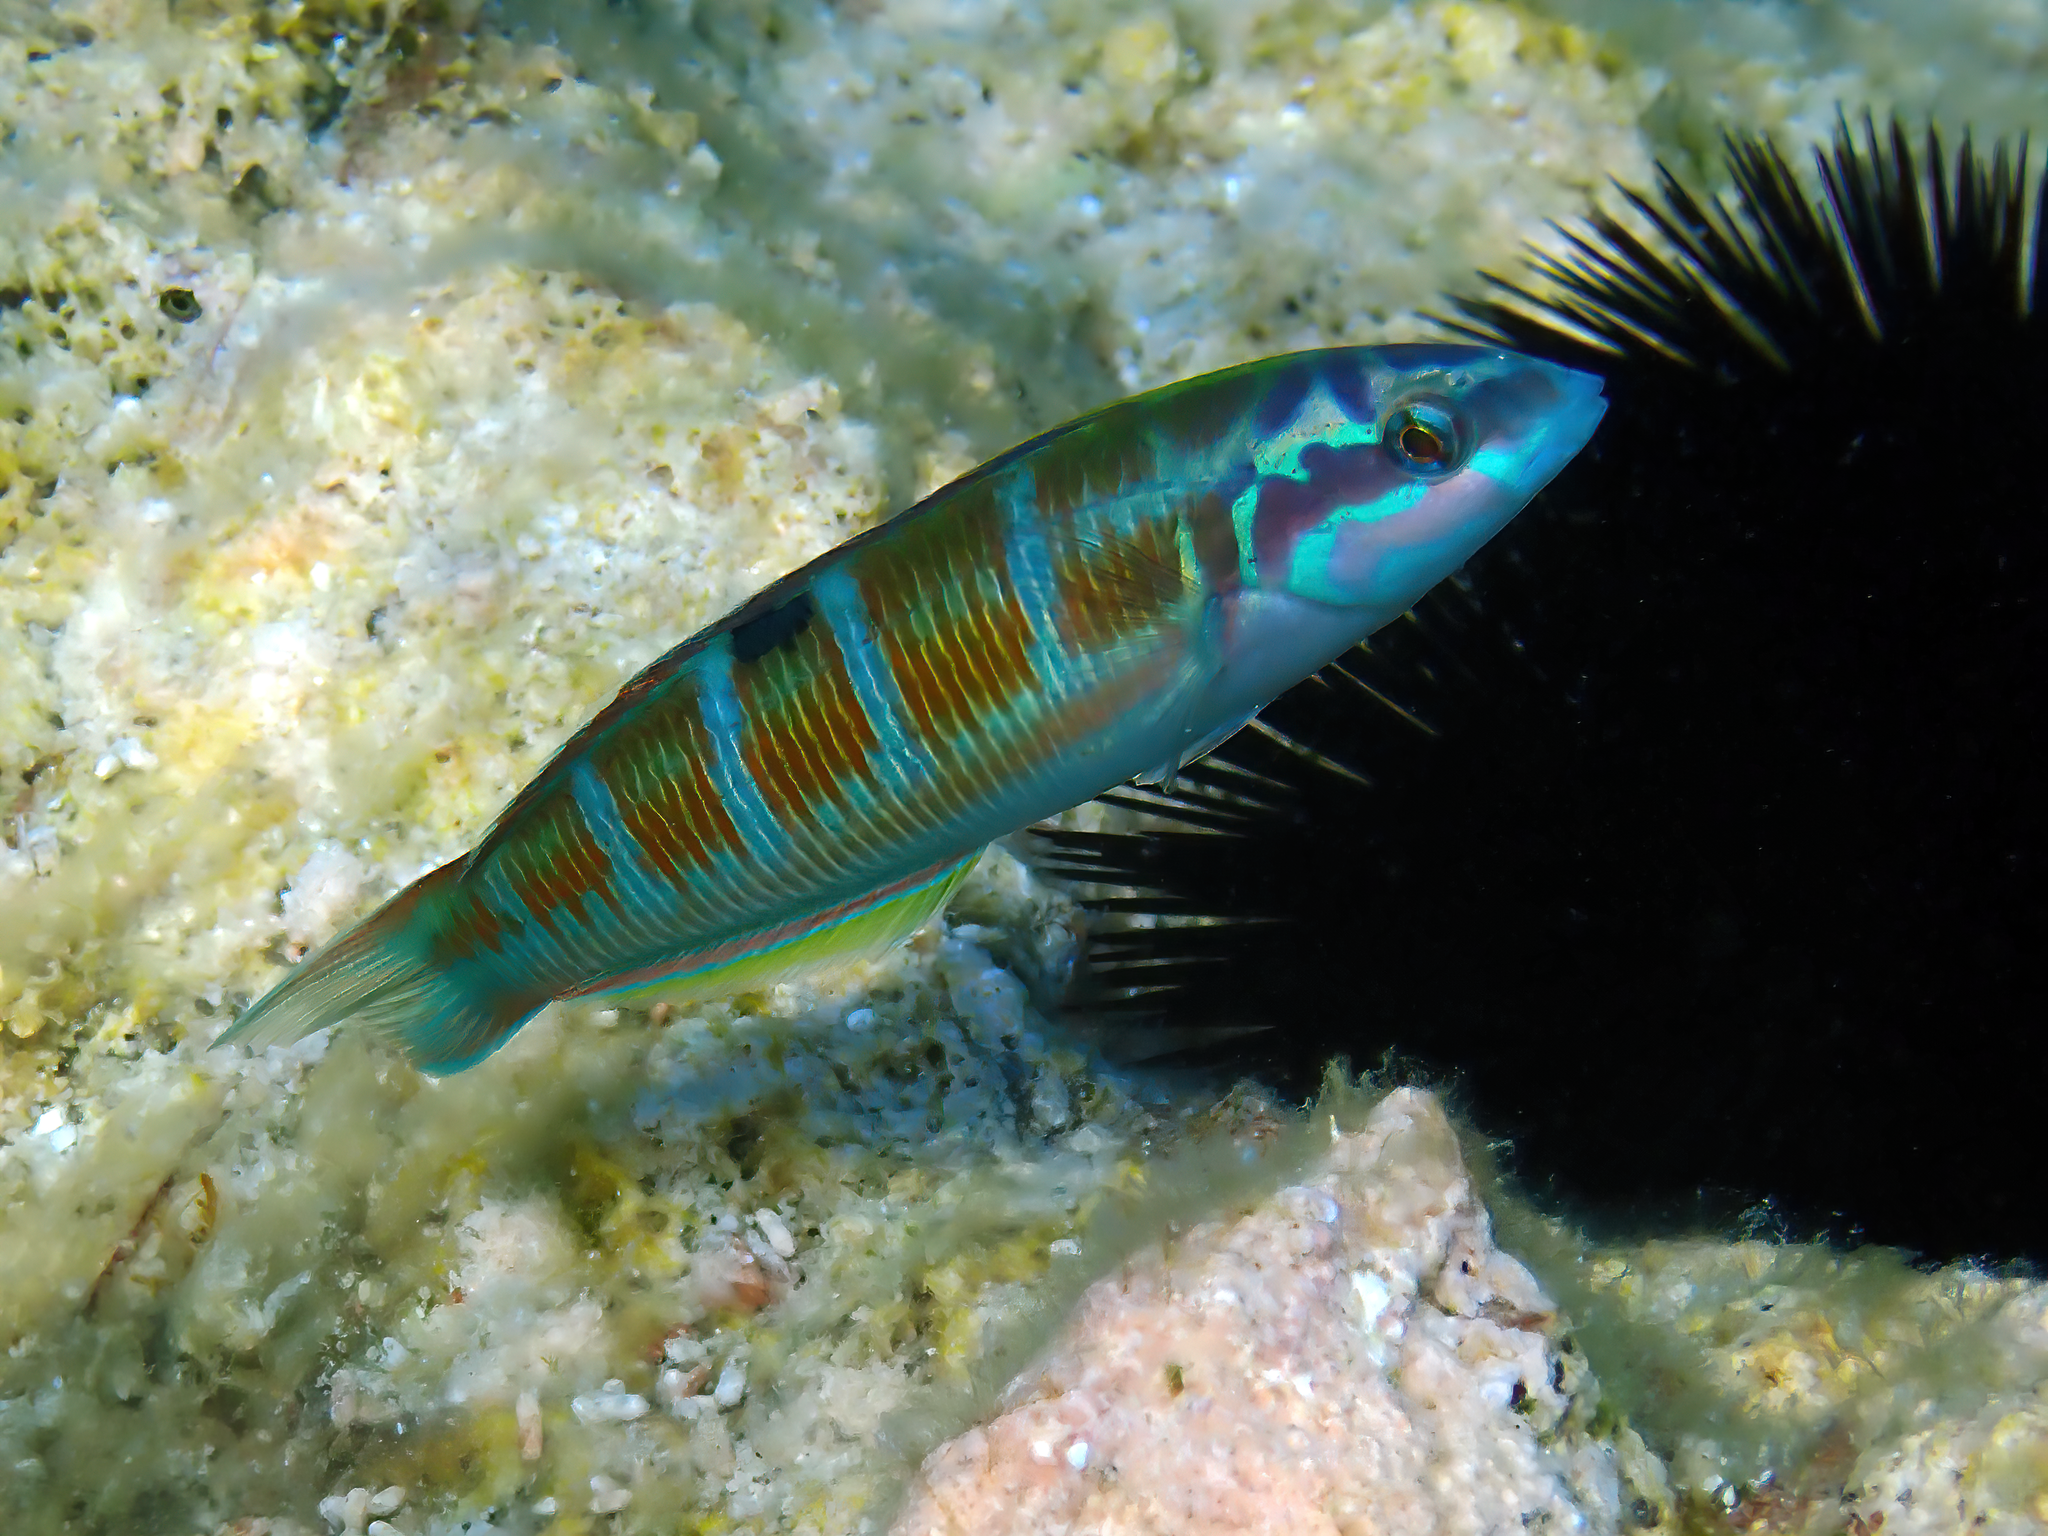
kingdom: Animalia
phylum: Chordata
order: Perciformes
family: Labridae
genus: Thalassoma
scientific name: Thalassoma pavo
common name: Ornate wrasse
